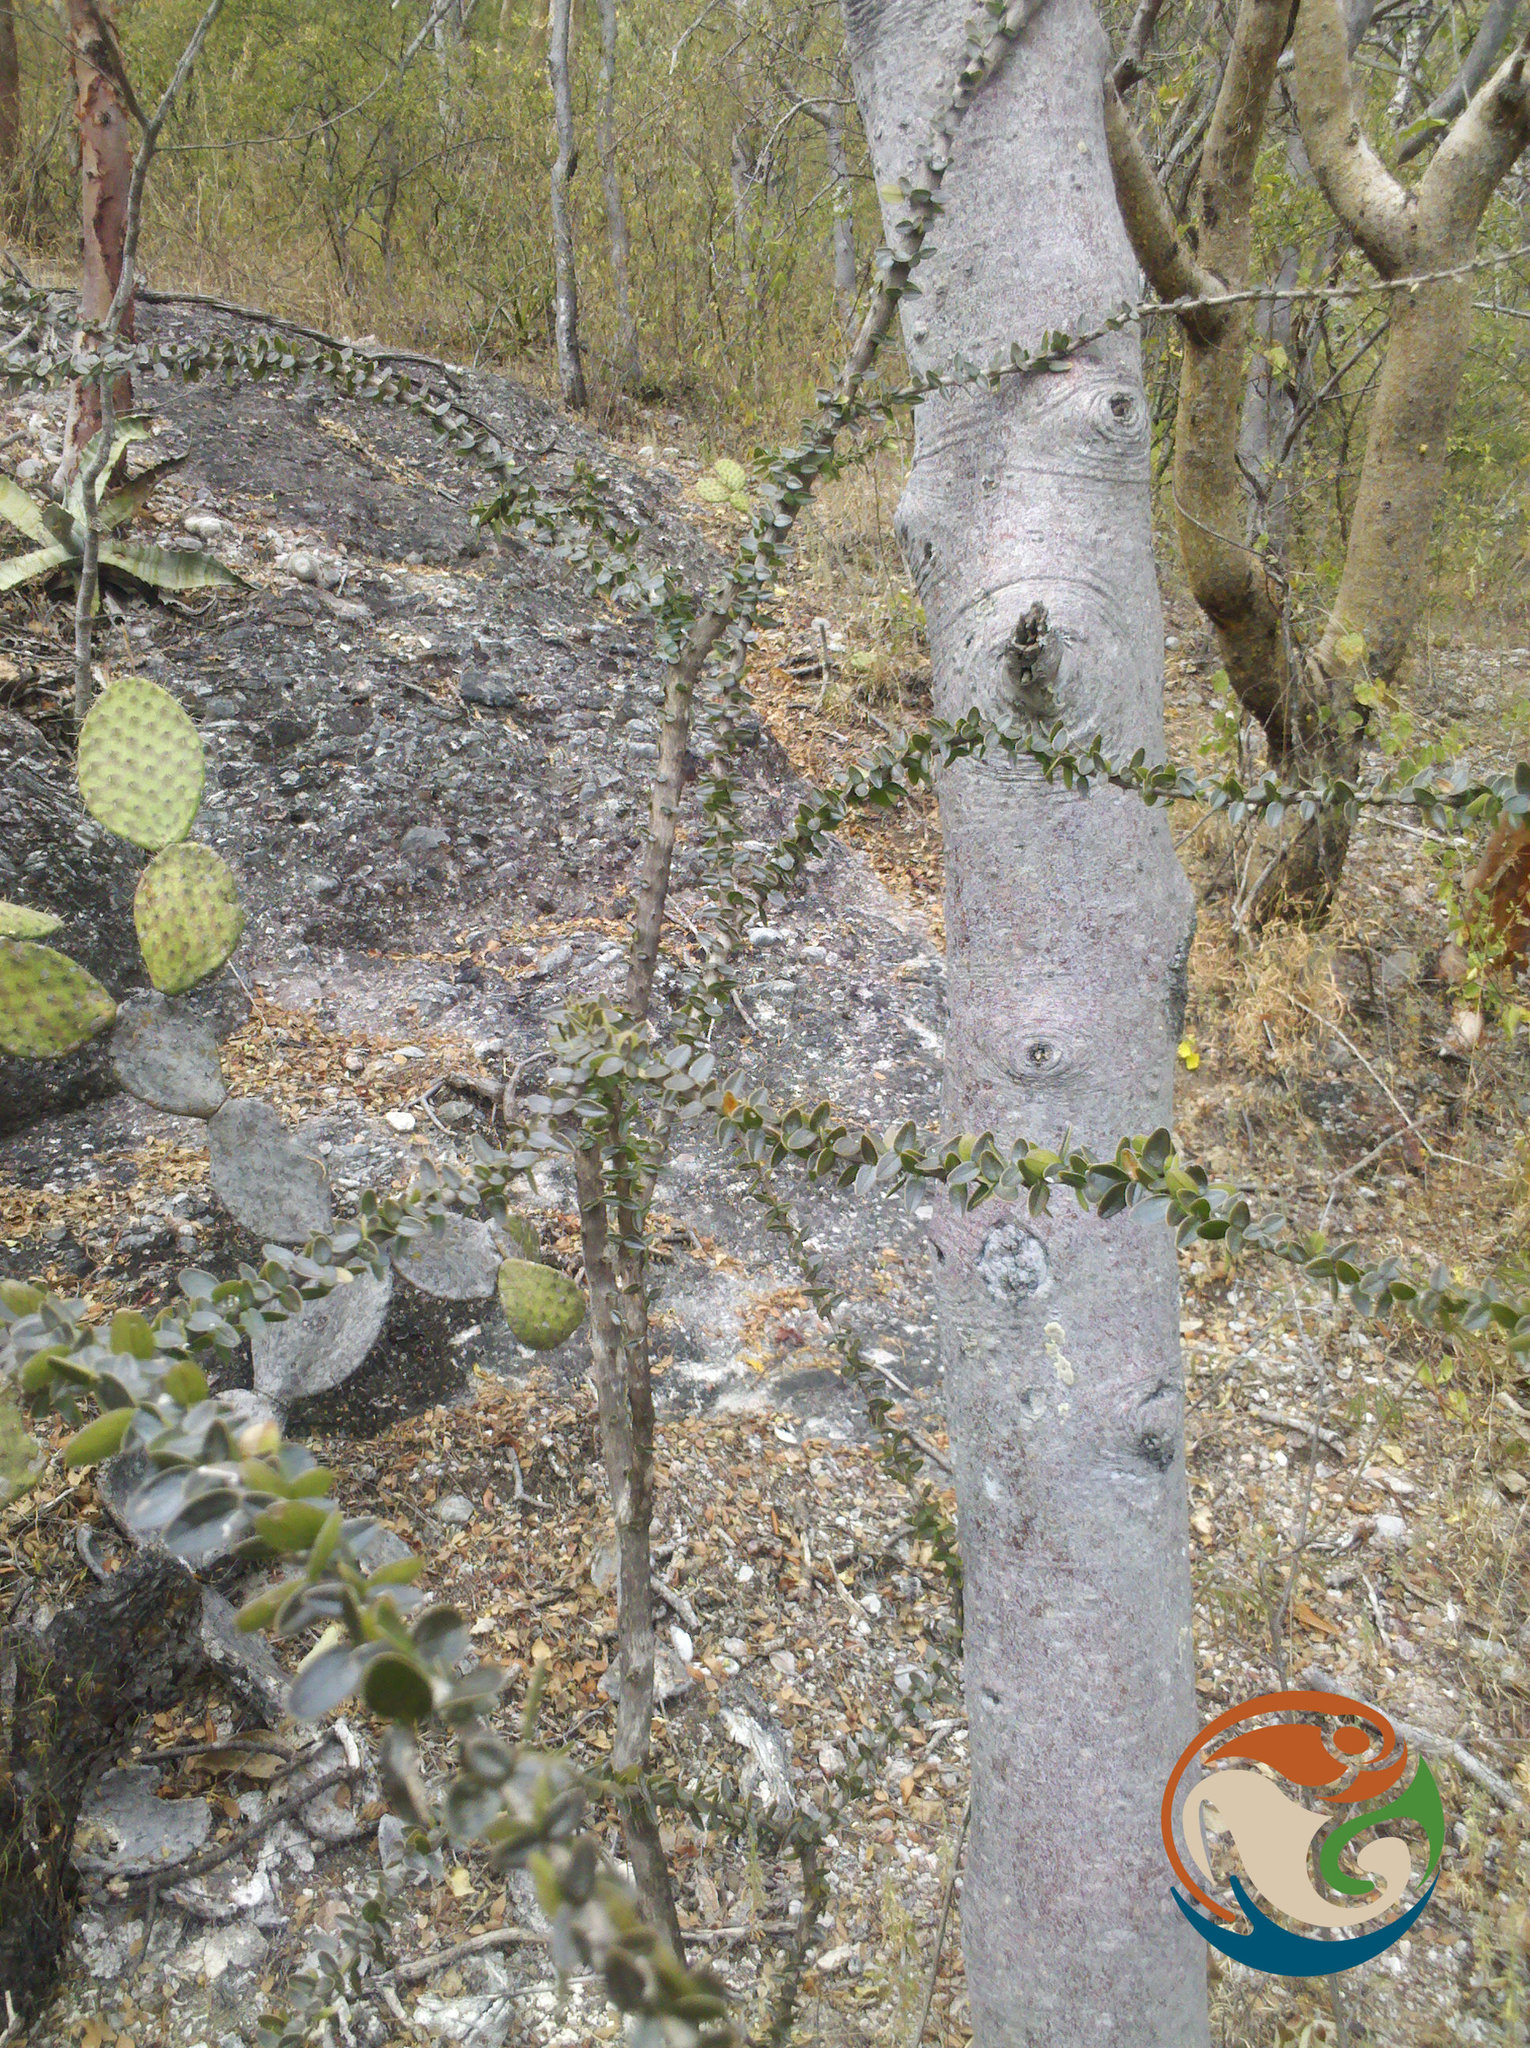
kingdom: Plantae
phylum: Tracheophyta
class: Magnoliopsida
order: Rosales
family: Rhamnaceae
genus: Ceanothus
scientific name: Ceanothus pauciflorus
